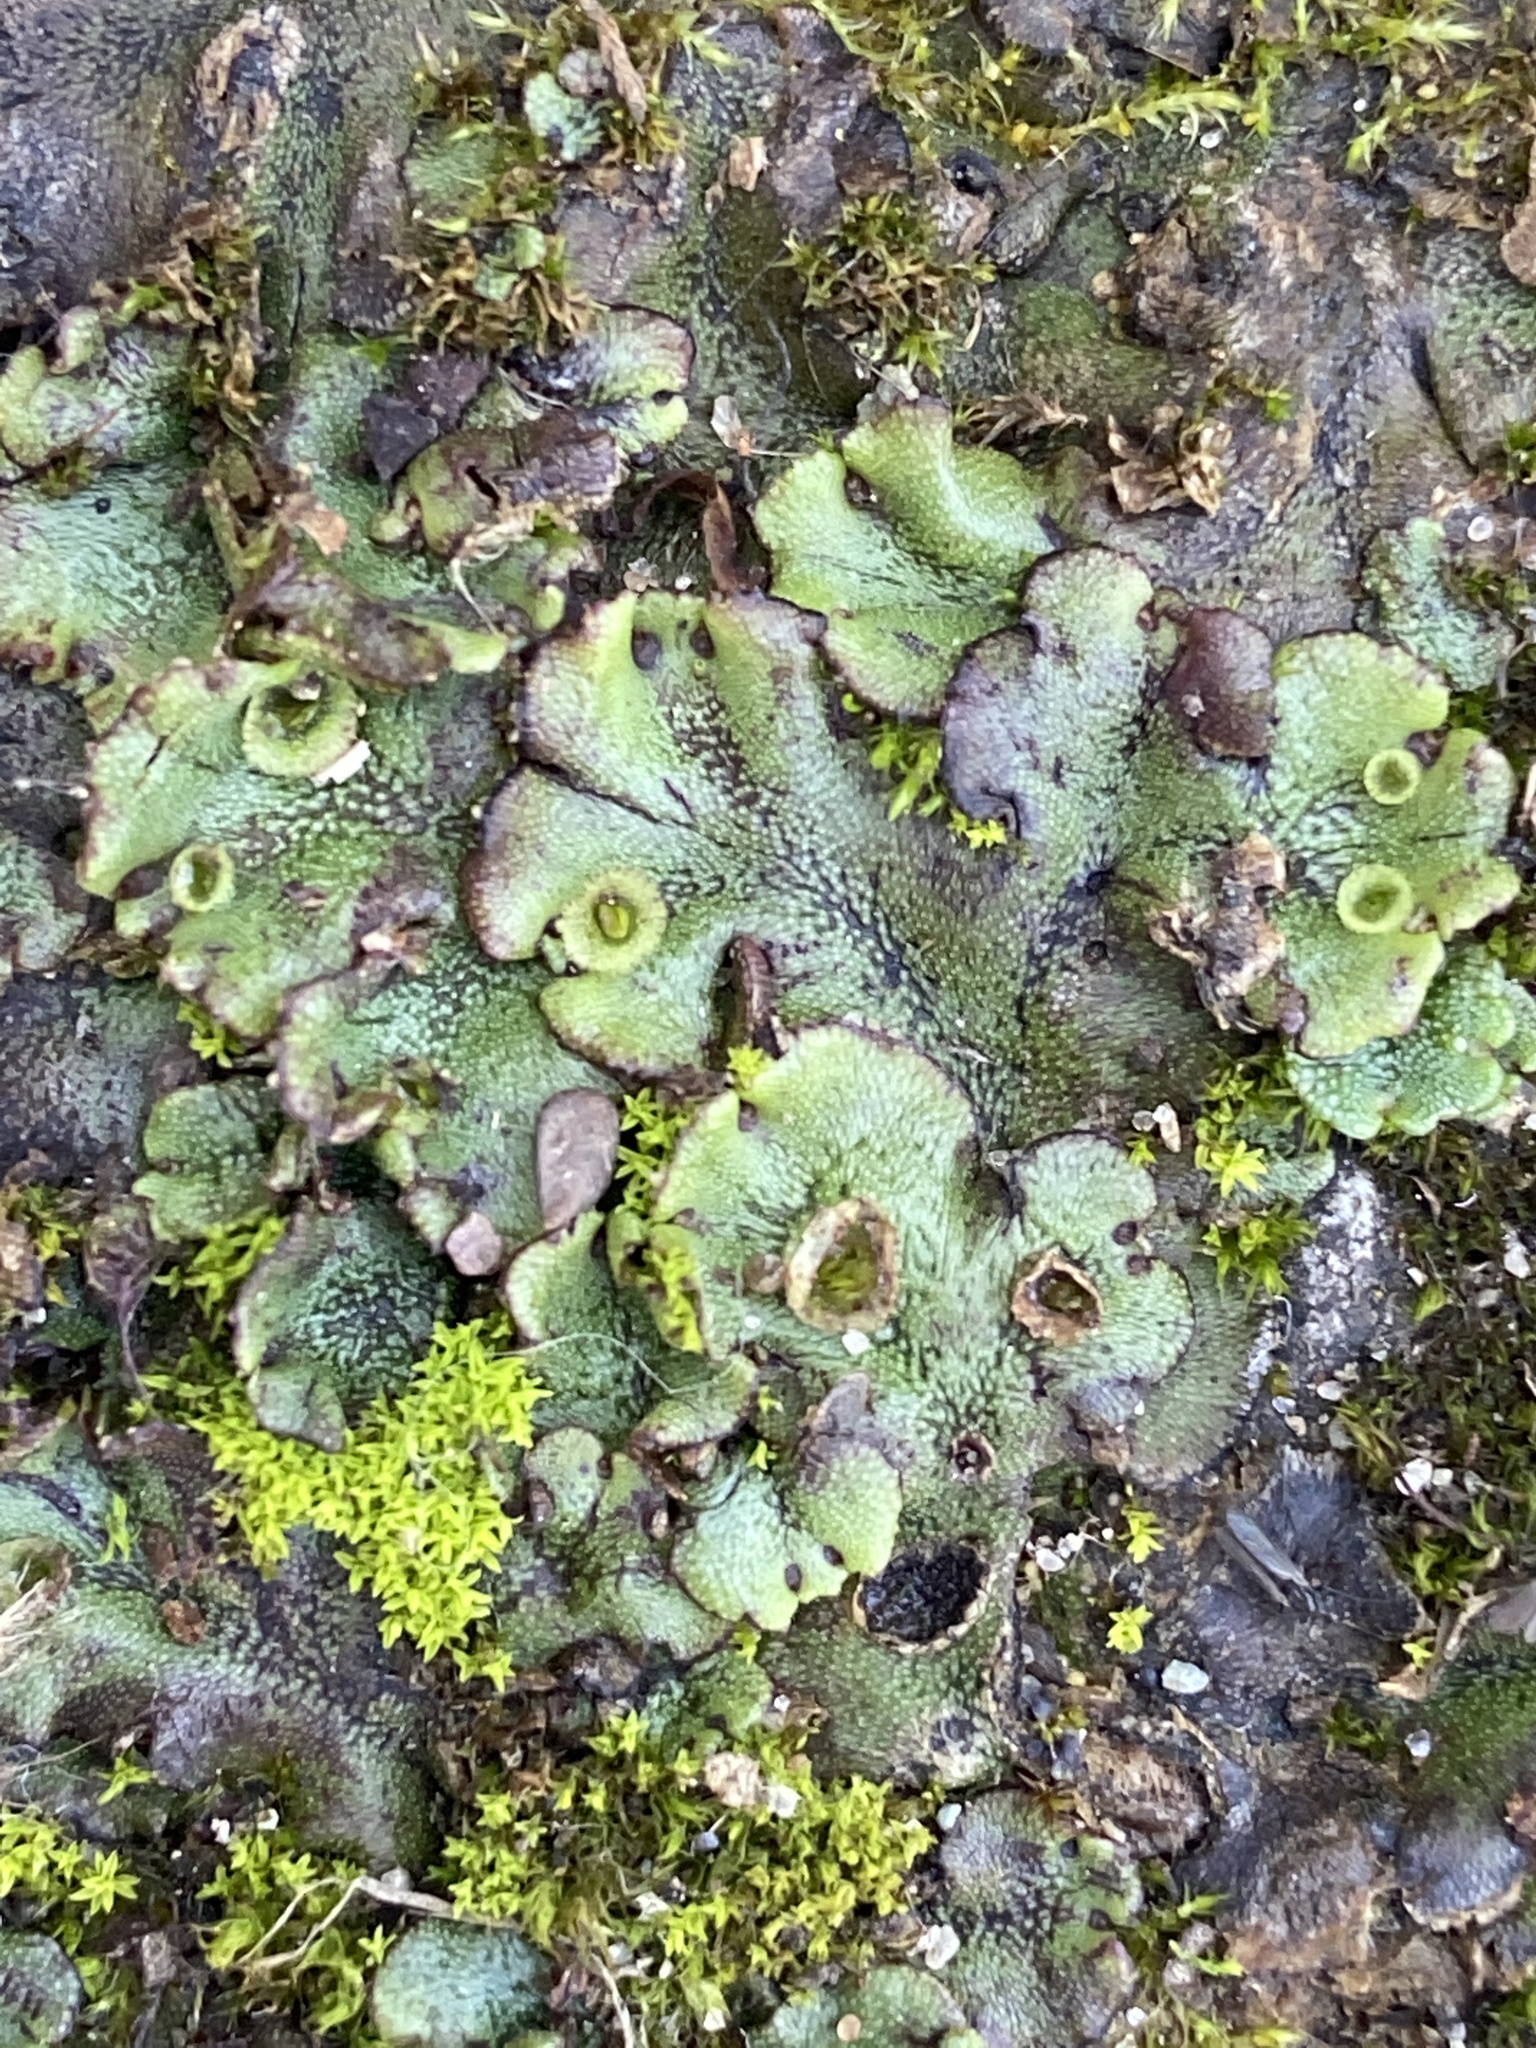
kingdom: Plantae
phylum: Marchantiophyta
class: Marchantiopsida
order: Marchantiales
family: Marchantiaceae
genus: Marchantia
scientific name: Marchantia polymorpha
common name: Common liverwort
